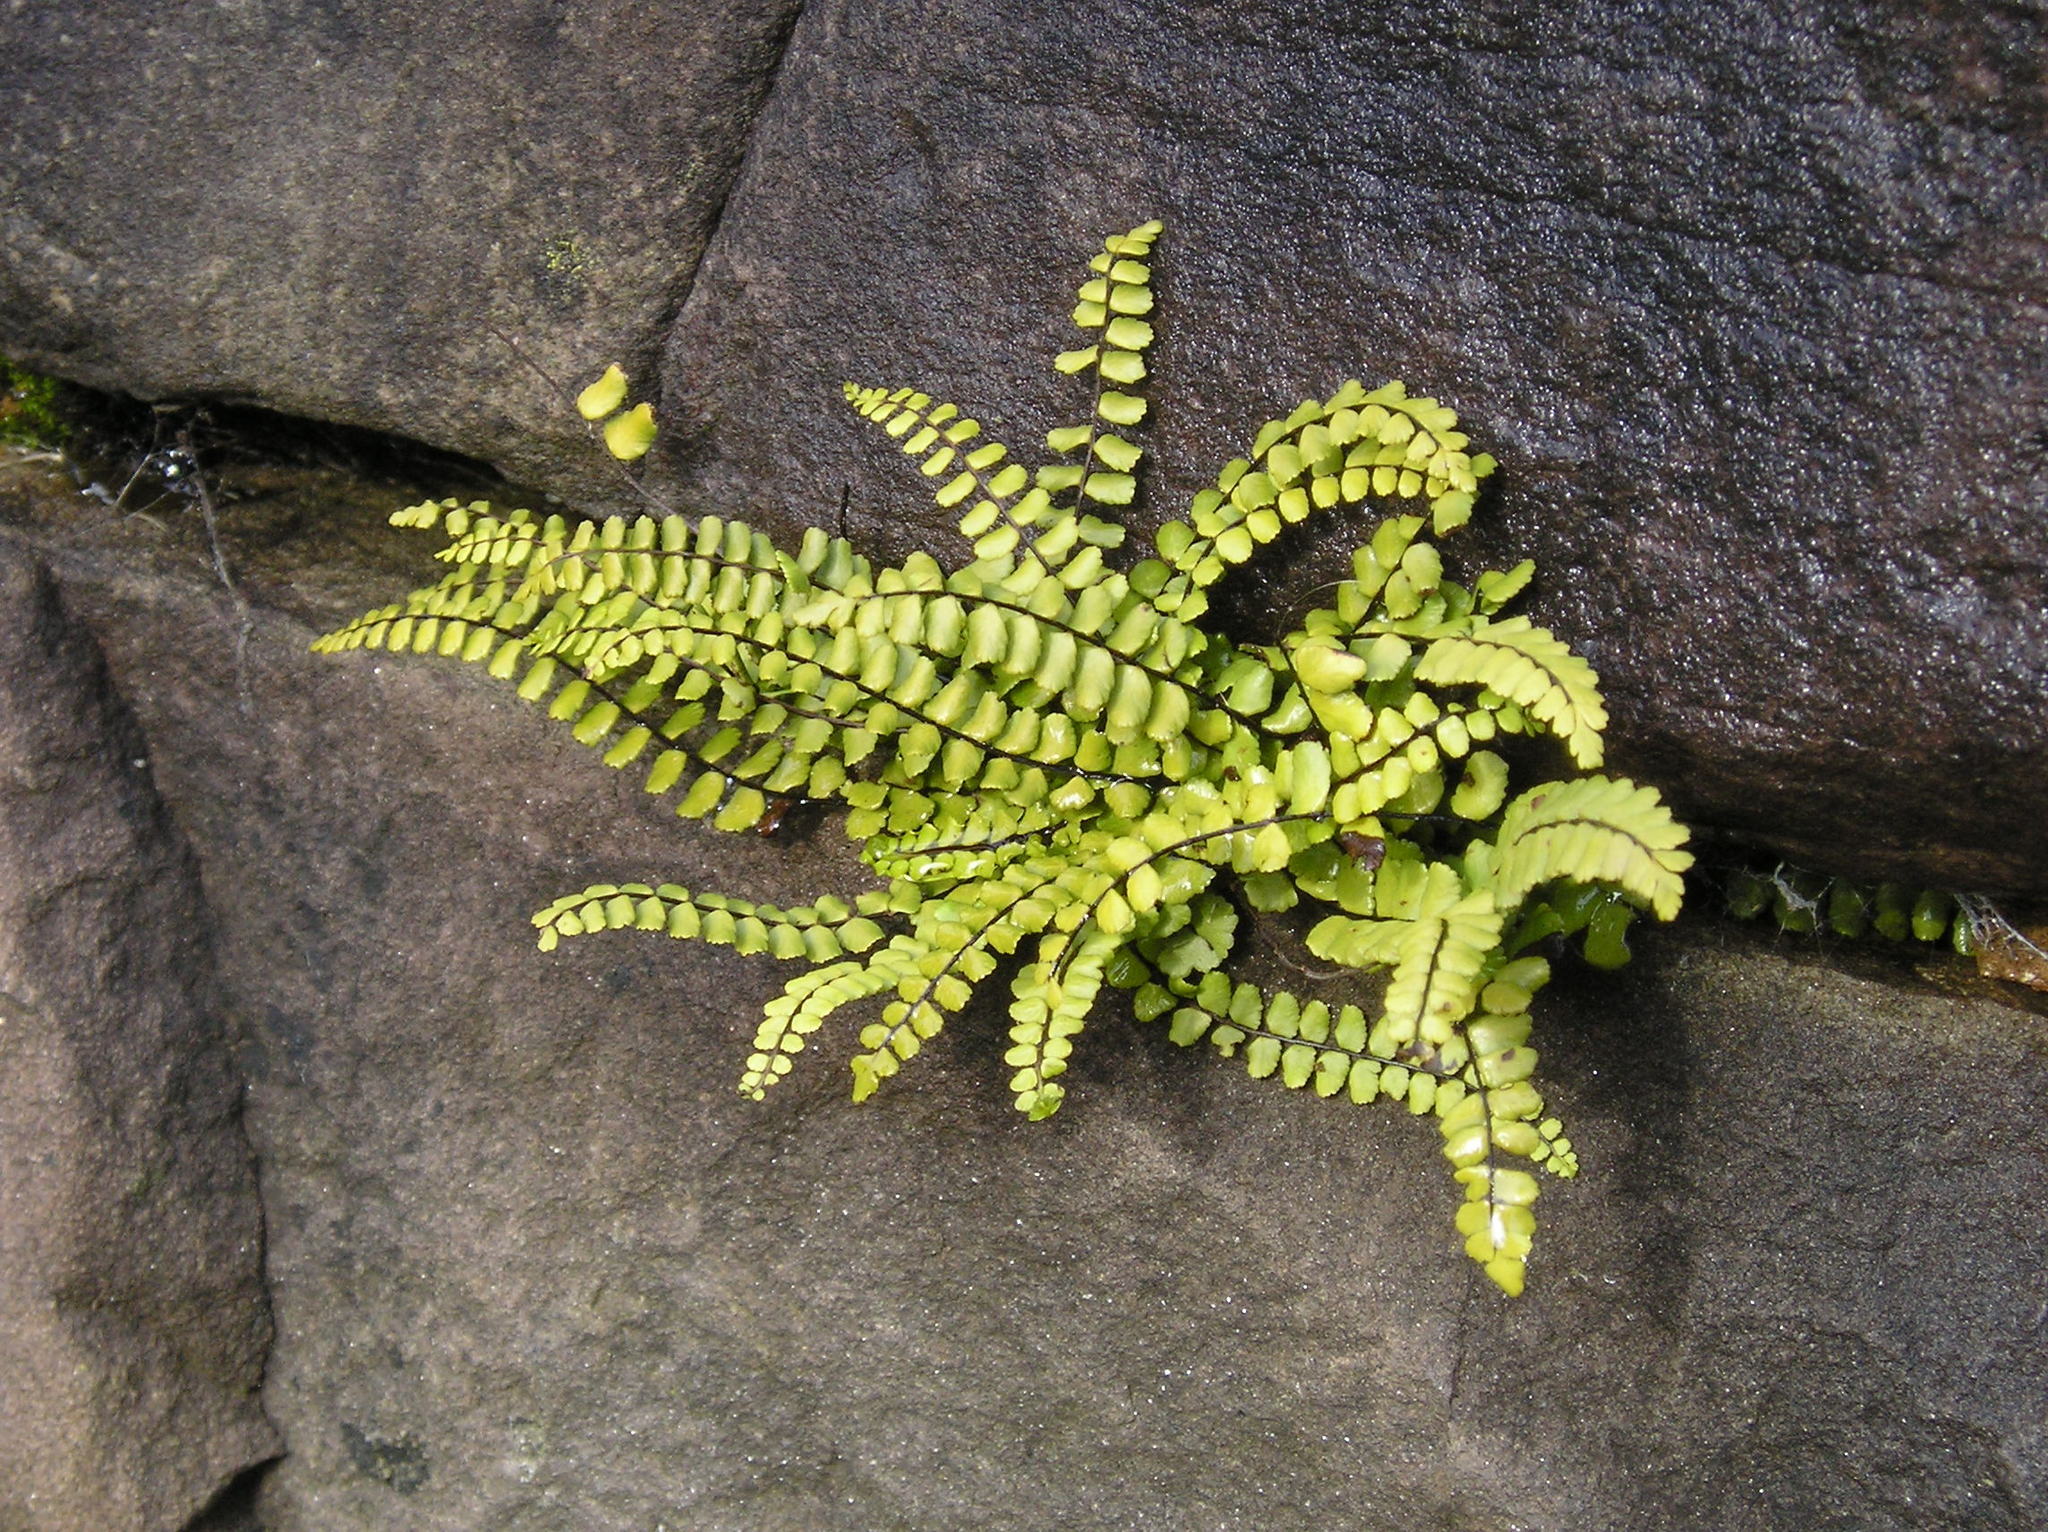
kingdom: Plantae
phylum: Tracheophyta
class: Polypodiopsida
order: Polypodiales
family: Aspleniaceae
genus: Asplenium
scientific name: Asplenium trichomanes
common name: Maidenhair spleenwort
